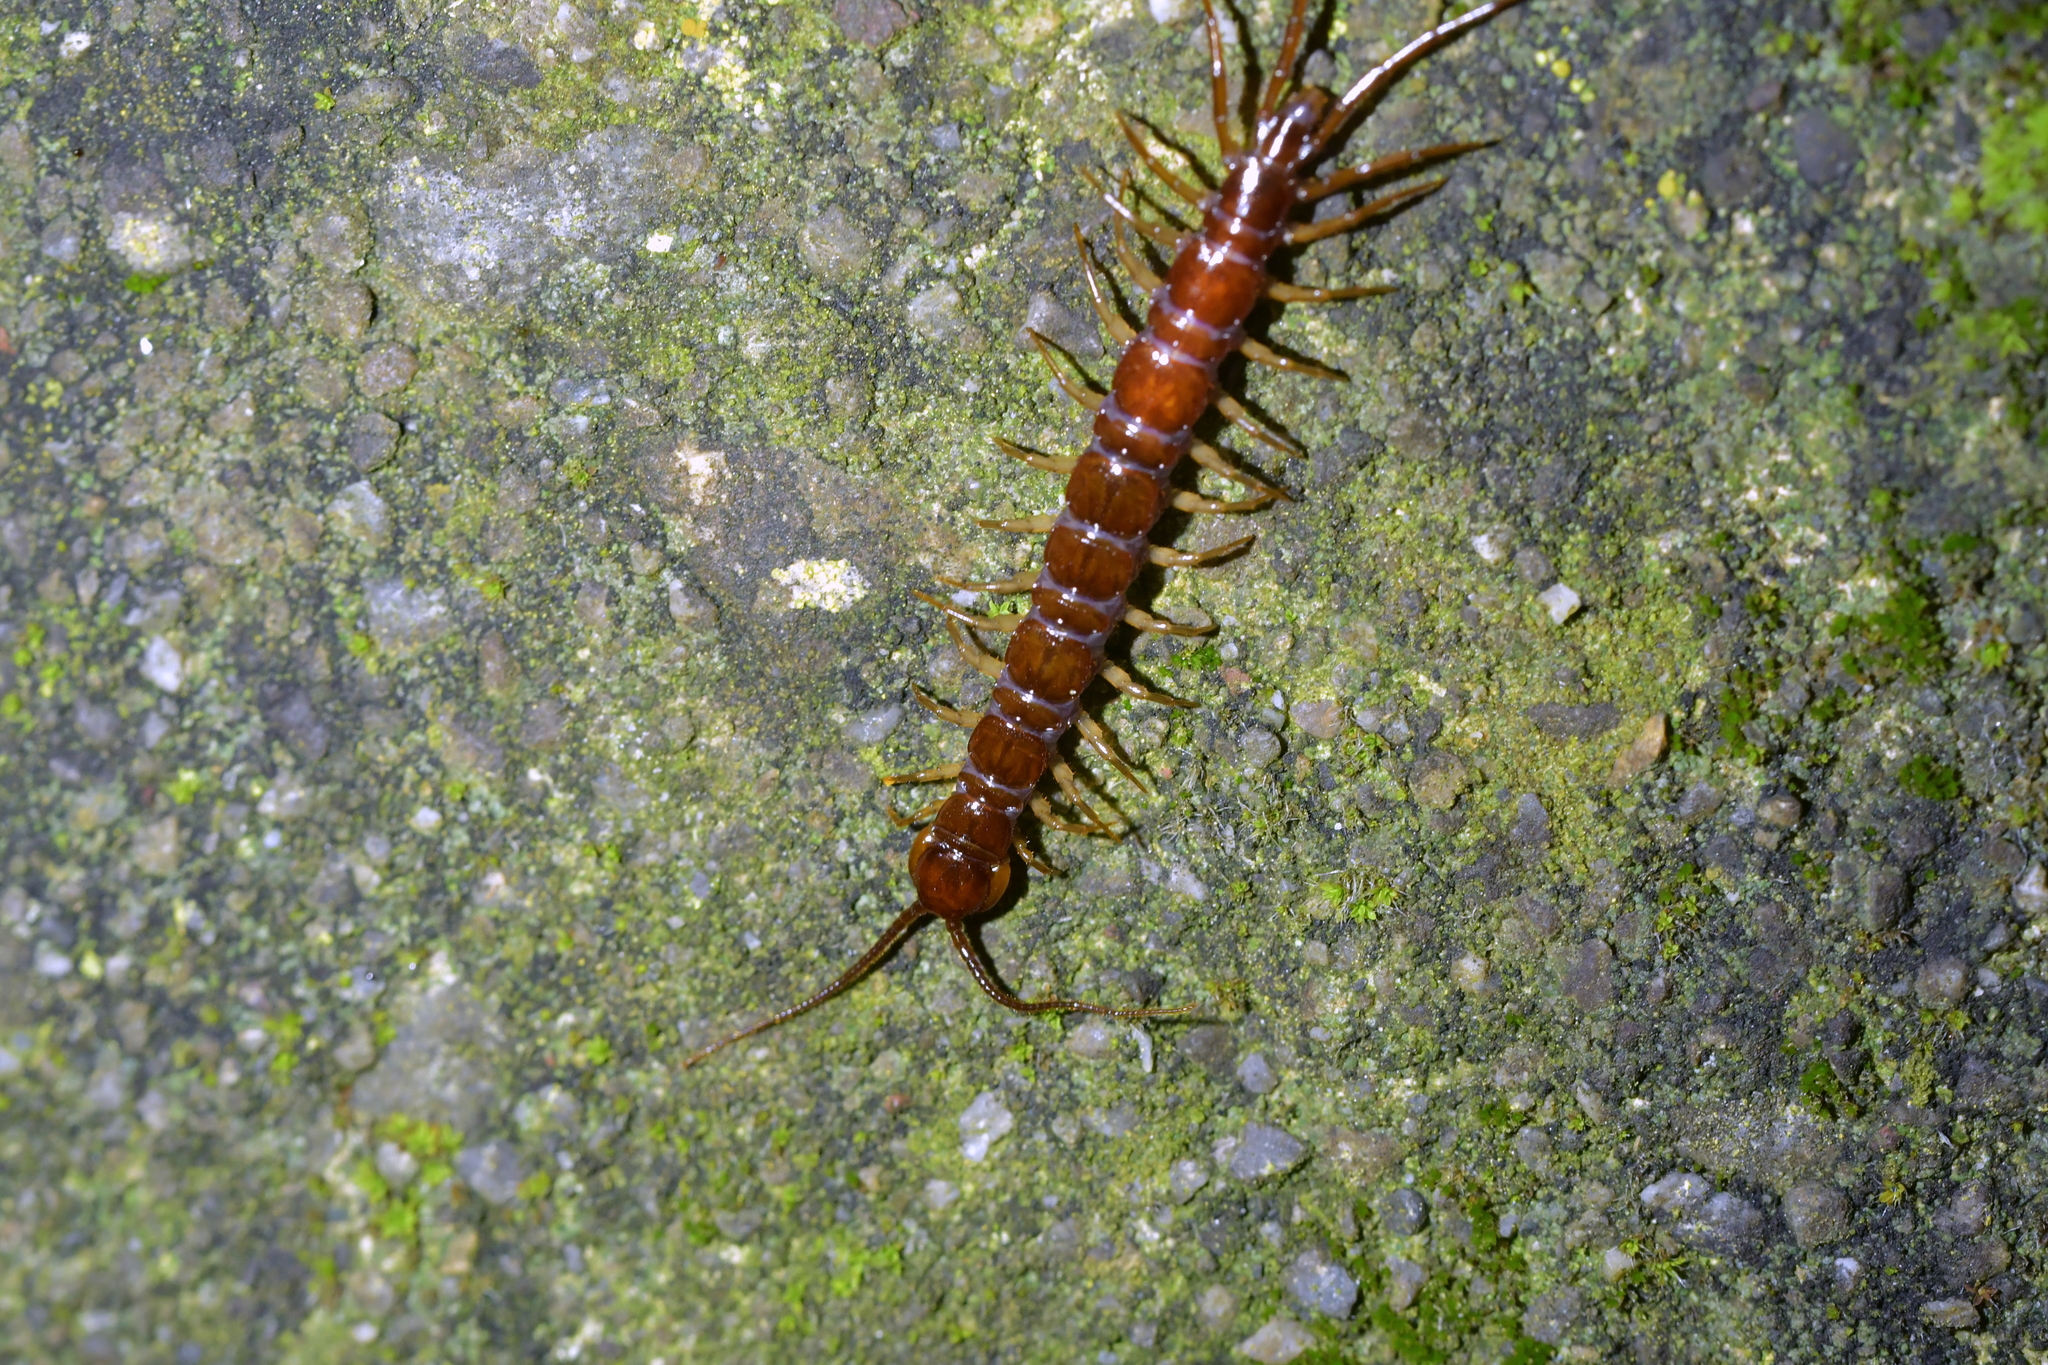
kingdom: Animalia
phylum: Arthropoda
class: Chilopoda
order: Lithobiomorpha
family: Lithobiidae
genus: Lithobius
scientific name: Lithobius forficatus
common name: Centipede
